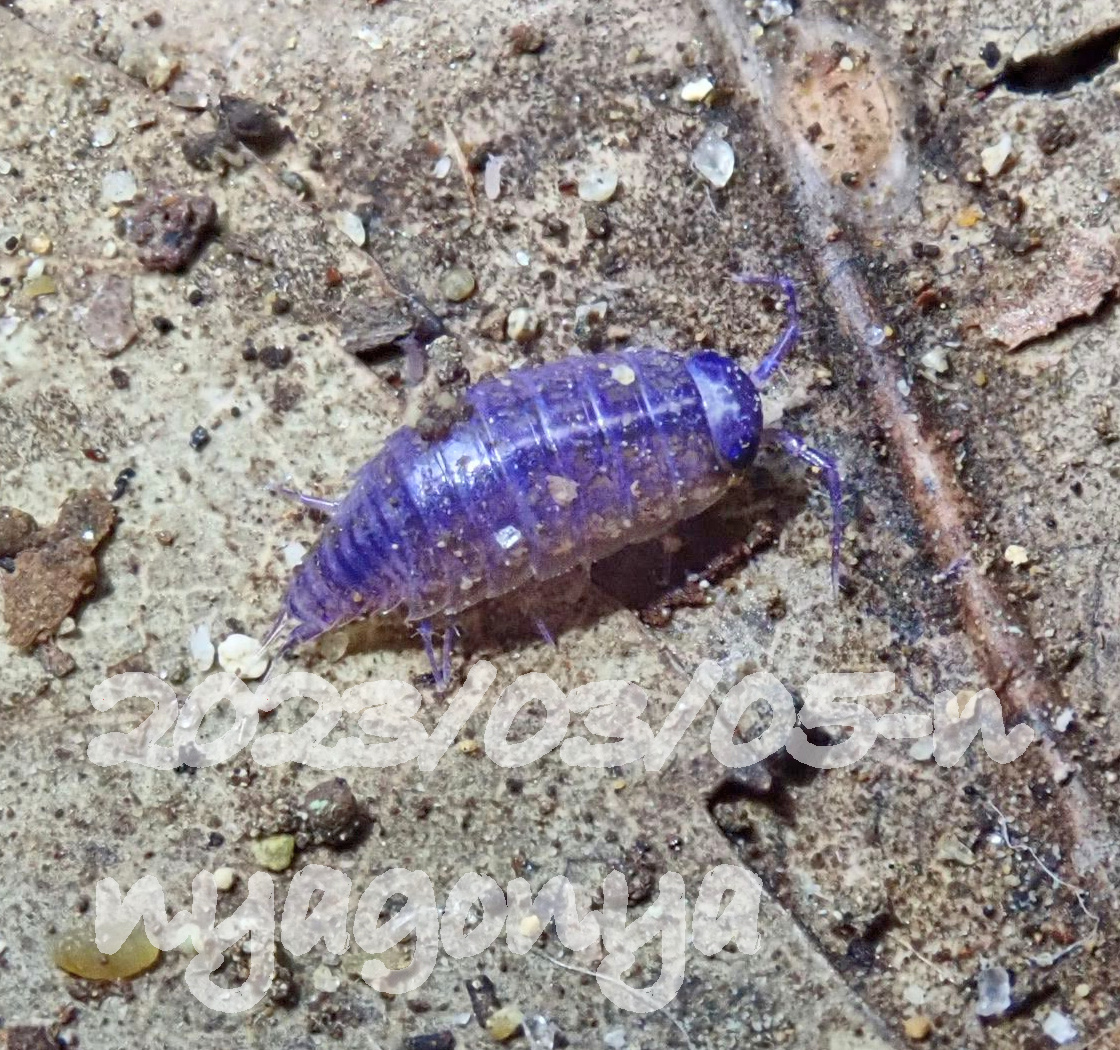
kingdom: Viruses
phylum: Nucleocytoviricota
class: Megaviricetes
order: Pimascovirales
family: Iridoviridae
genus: Iridovirus
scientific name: Iridovirus Invertebrate iridescent virus 31
